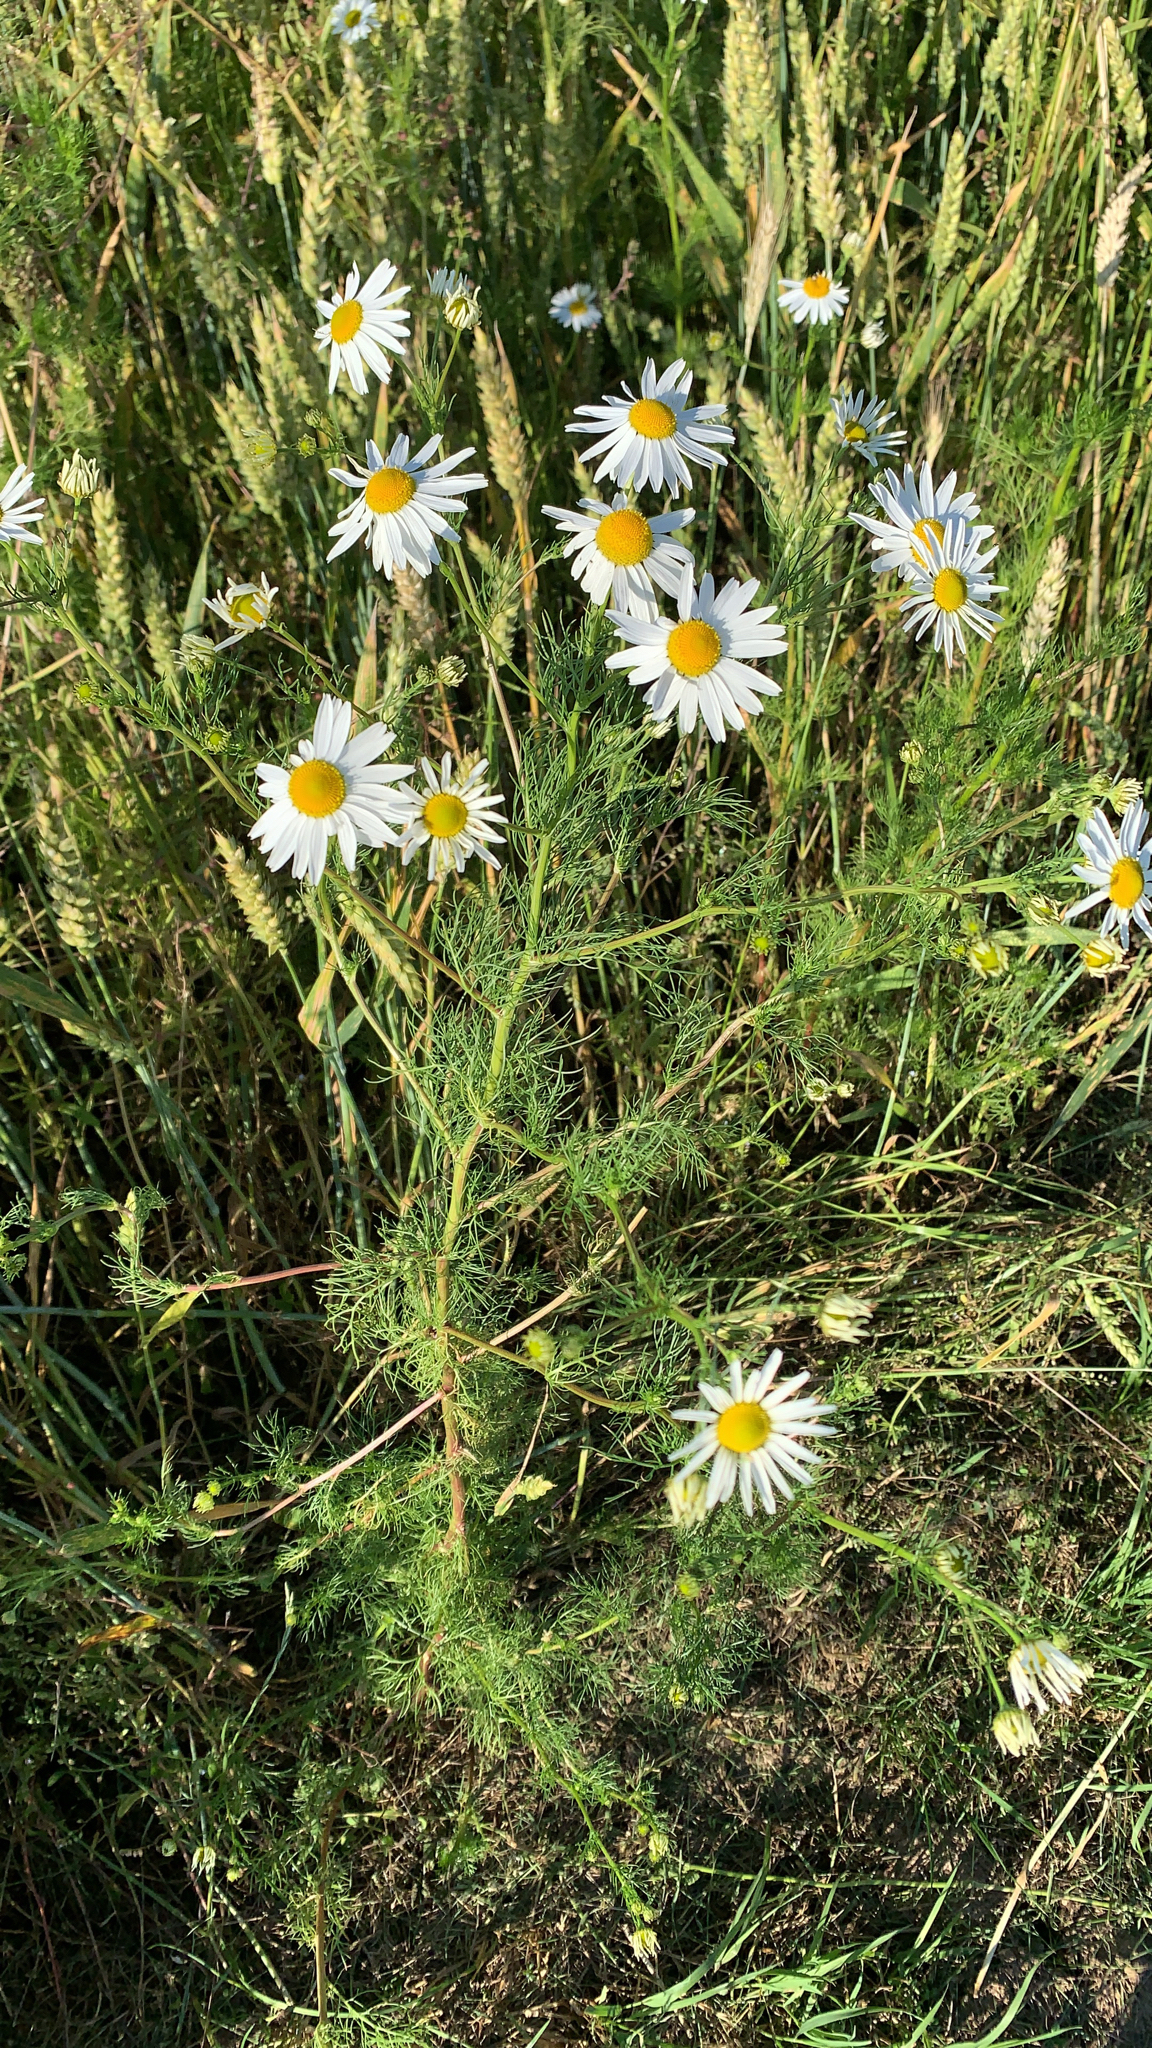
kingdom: Plantae
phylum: Tracheophyta
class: Magnoliopsida
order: Asterales
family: Asteraceae
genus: Tripleurospermum
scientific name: Tripleurospermum inodorum
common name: Scentless mayweed
